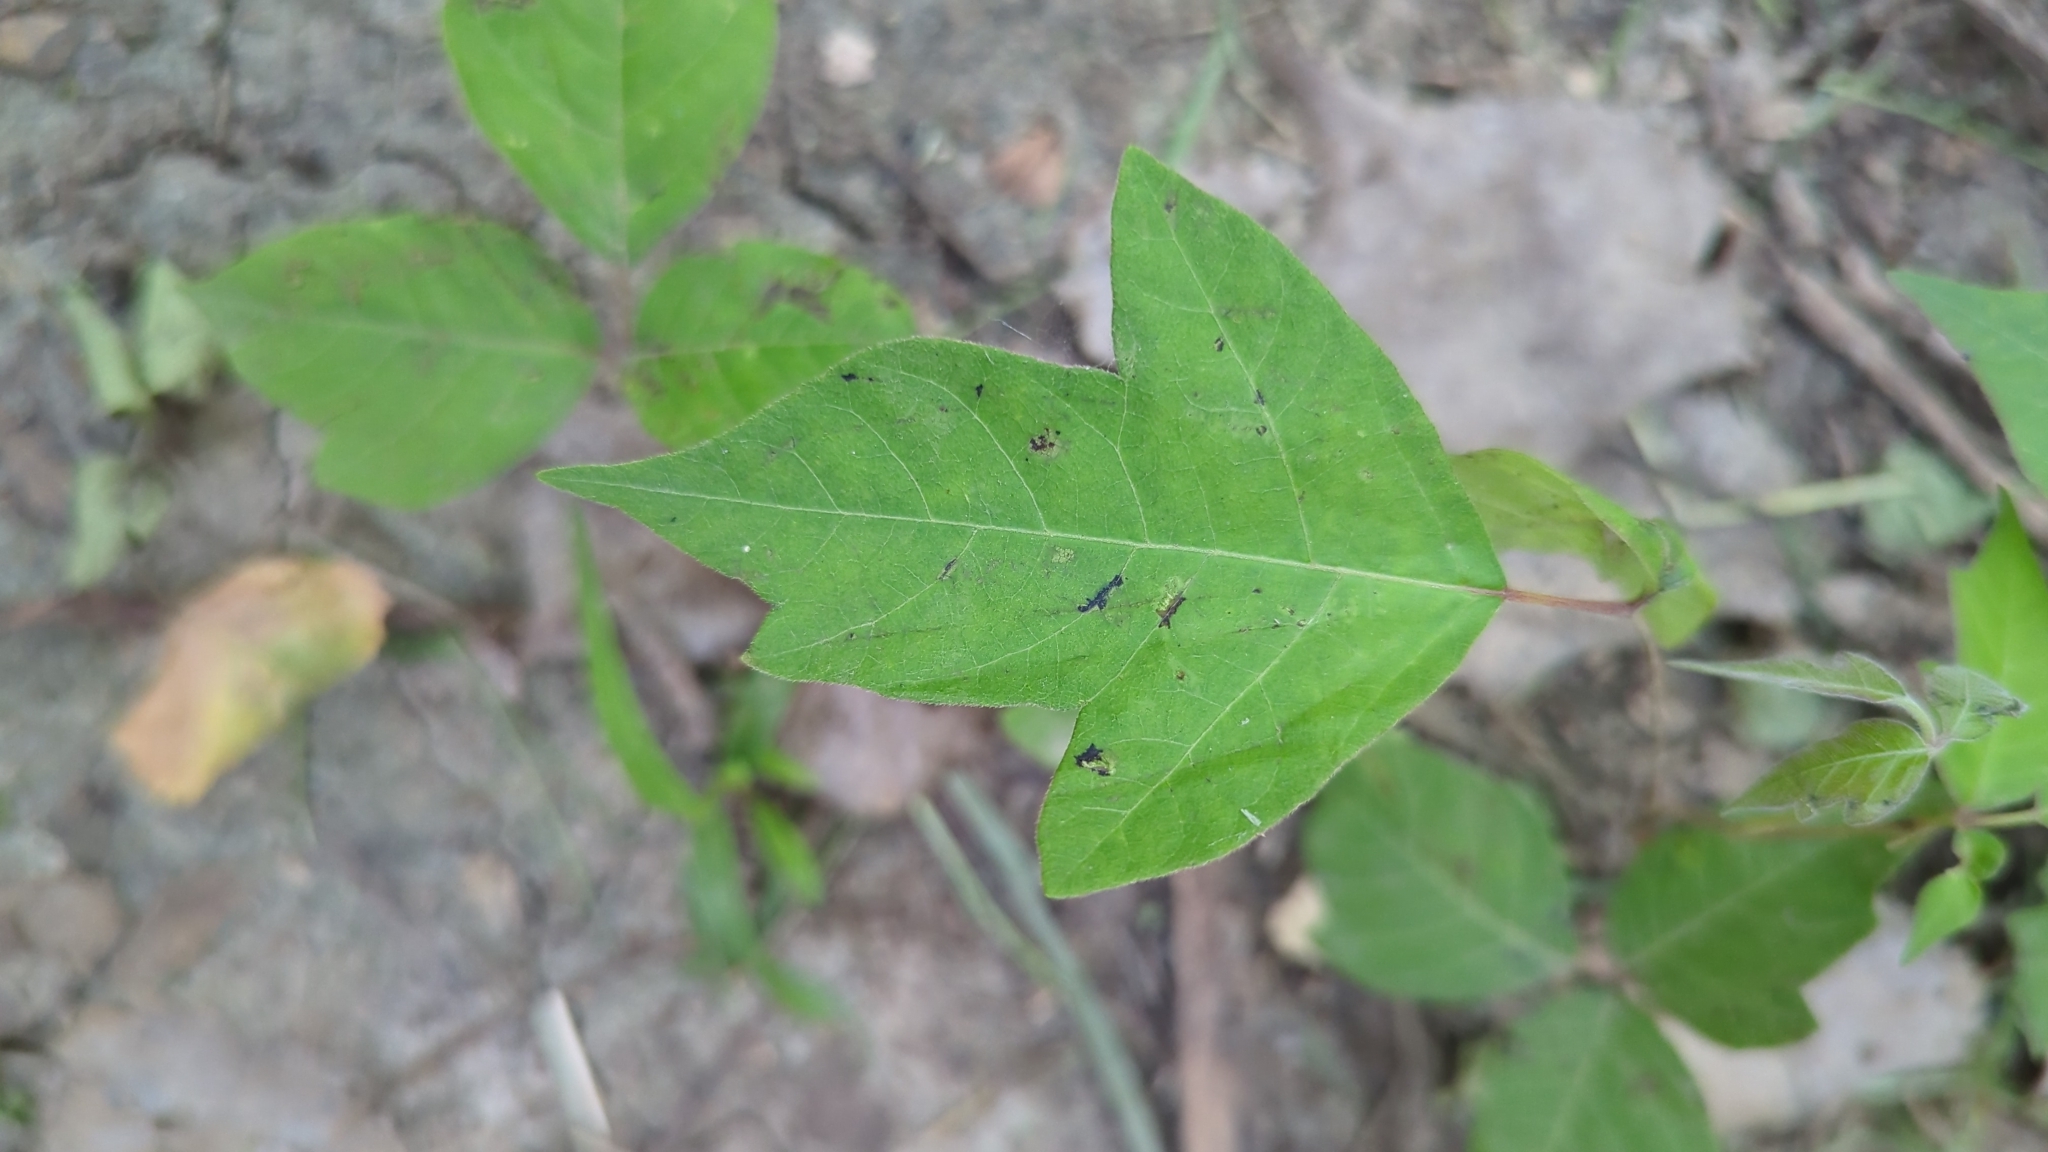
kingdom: Plantae
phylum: Tracheophyta
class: Magnoliopsida
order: Sapindales
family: Anacardiaceae
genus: Toxicodendron
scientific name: Toxicodendron radicans
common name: Poison ivy
